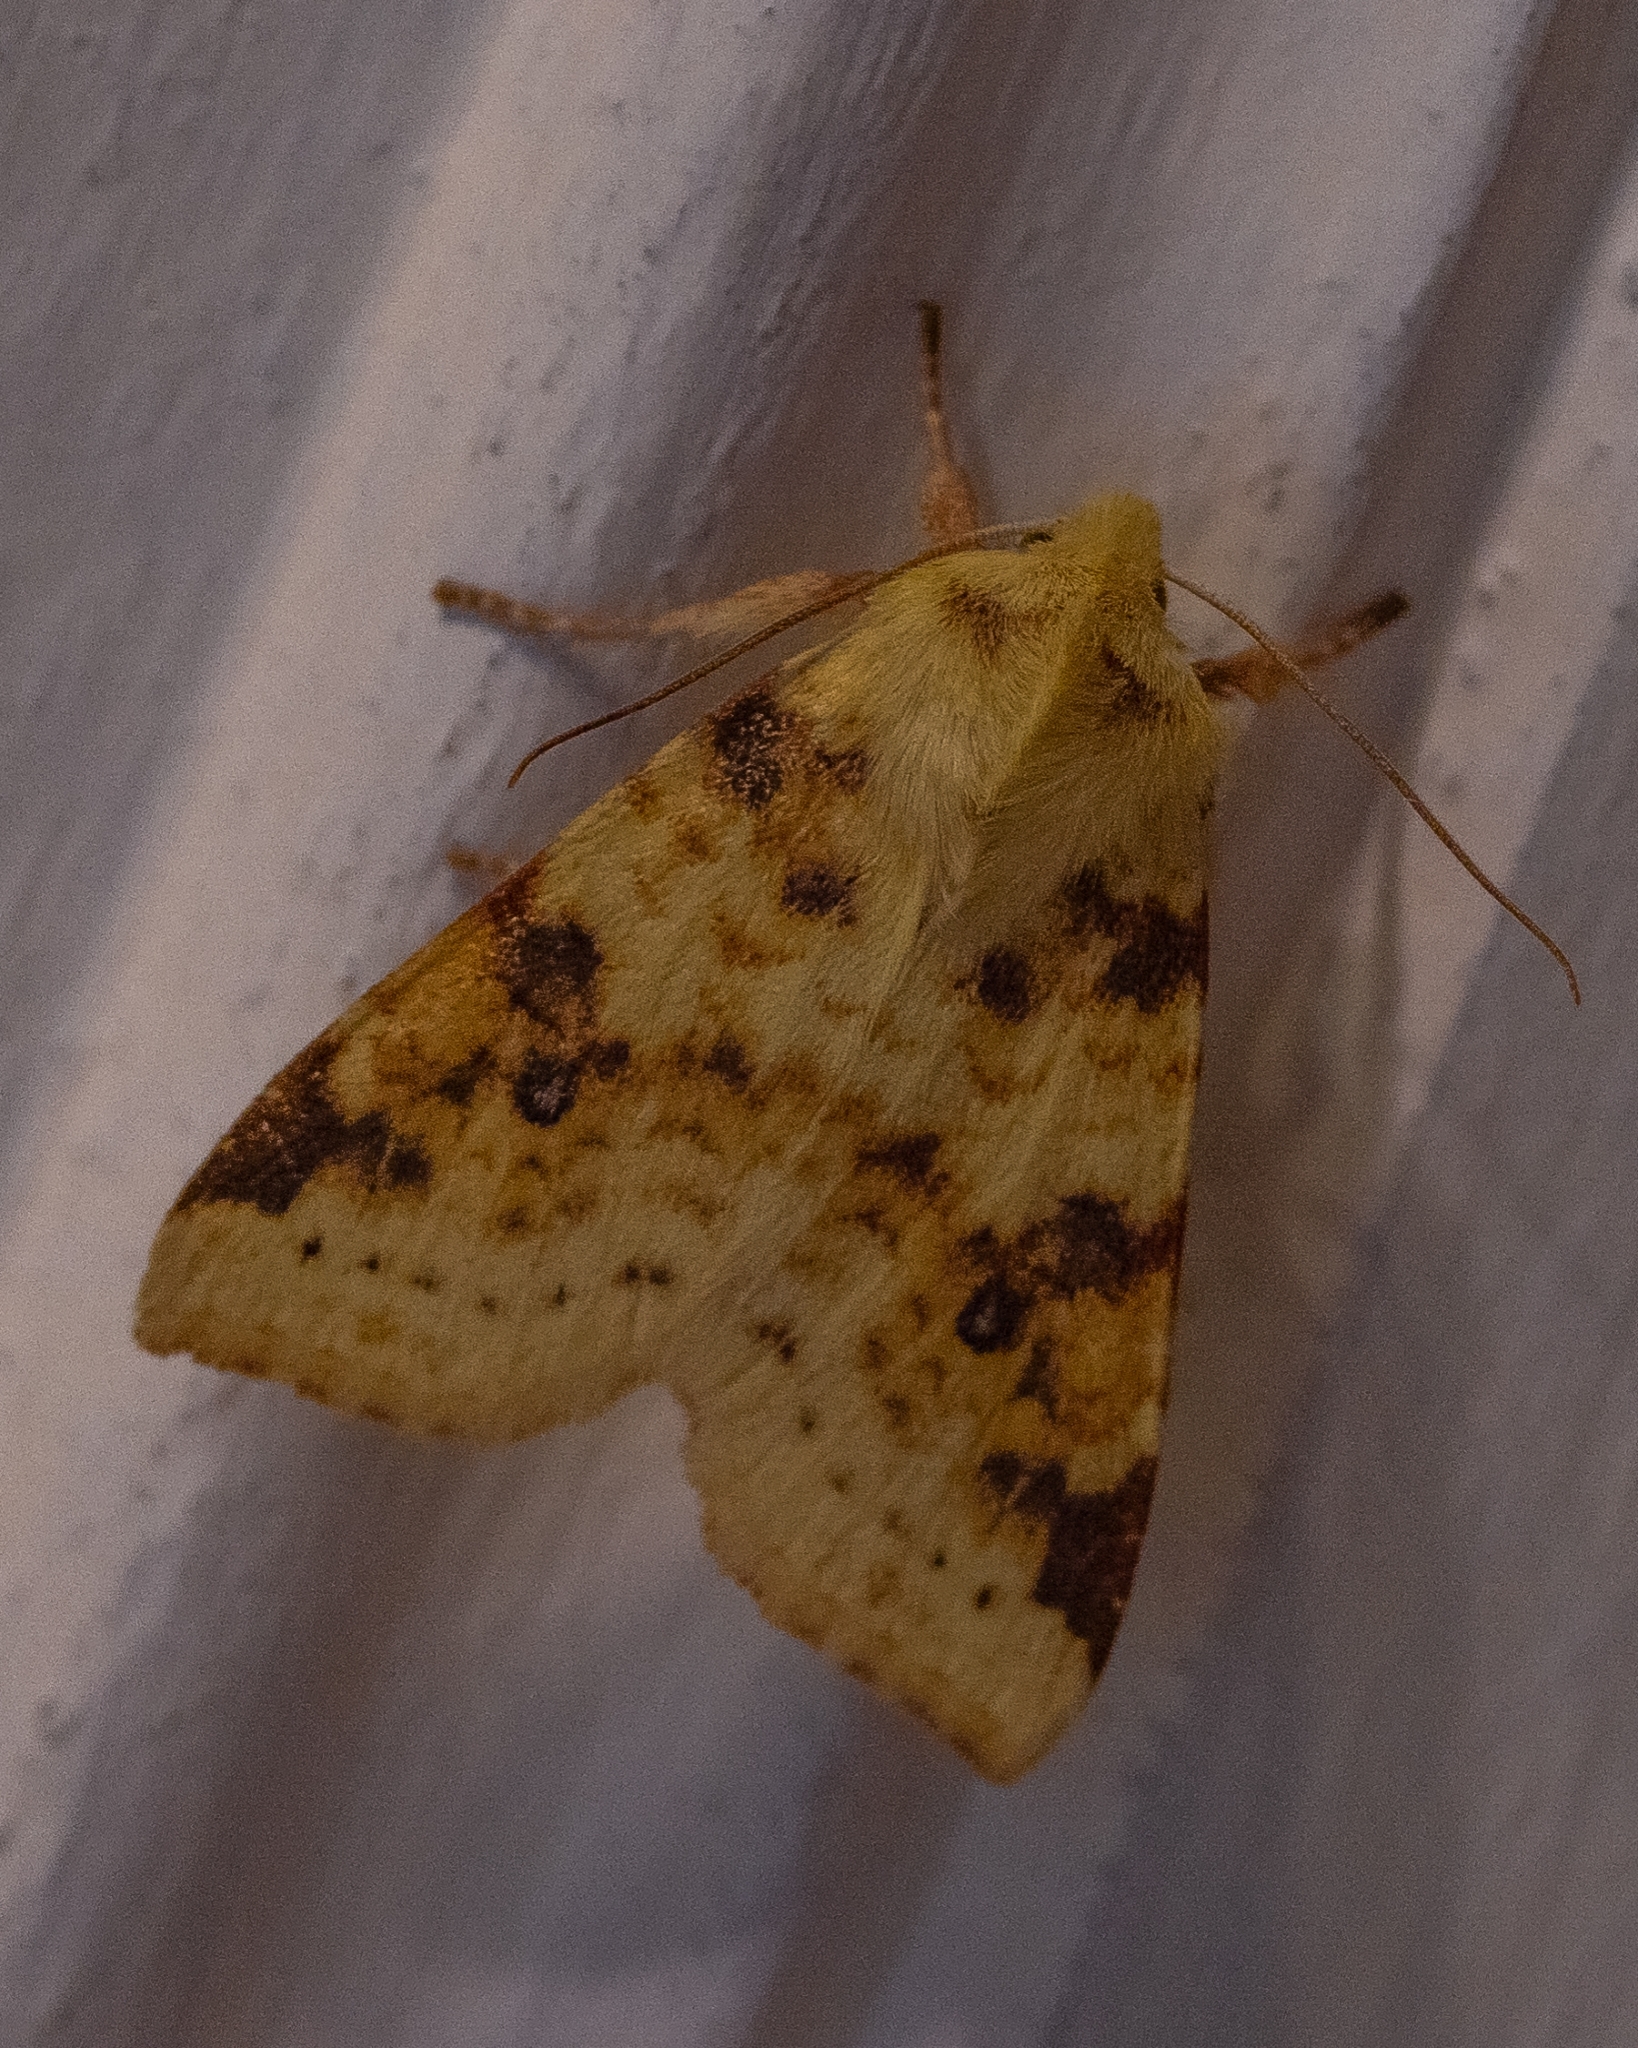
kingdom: Animalia
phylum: Arthropoda
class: Insecta
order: Lepidoptera
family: Noctuidae
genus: Xanthia
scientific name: Xanthia icteritia
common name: The sallow
